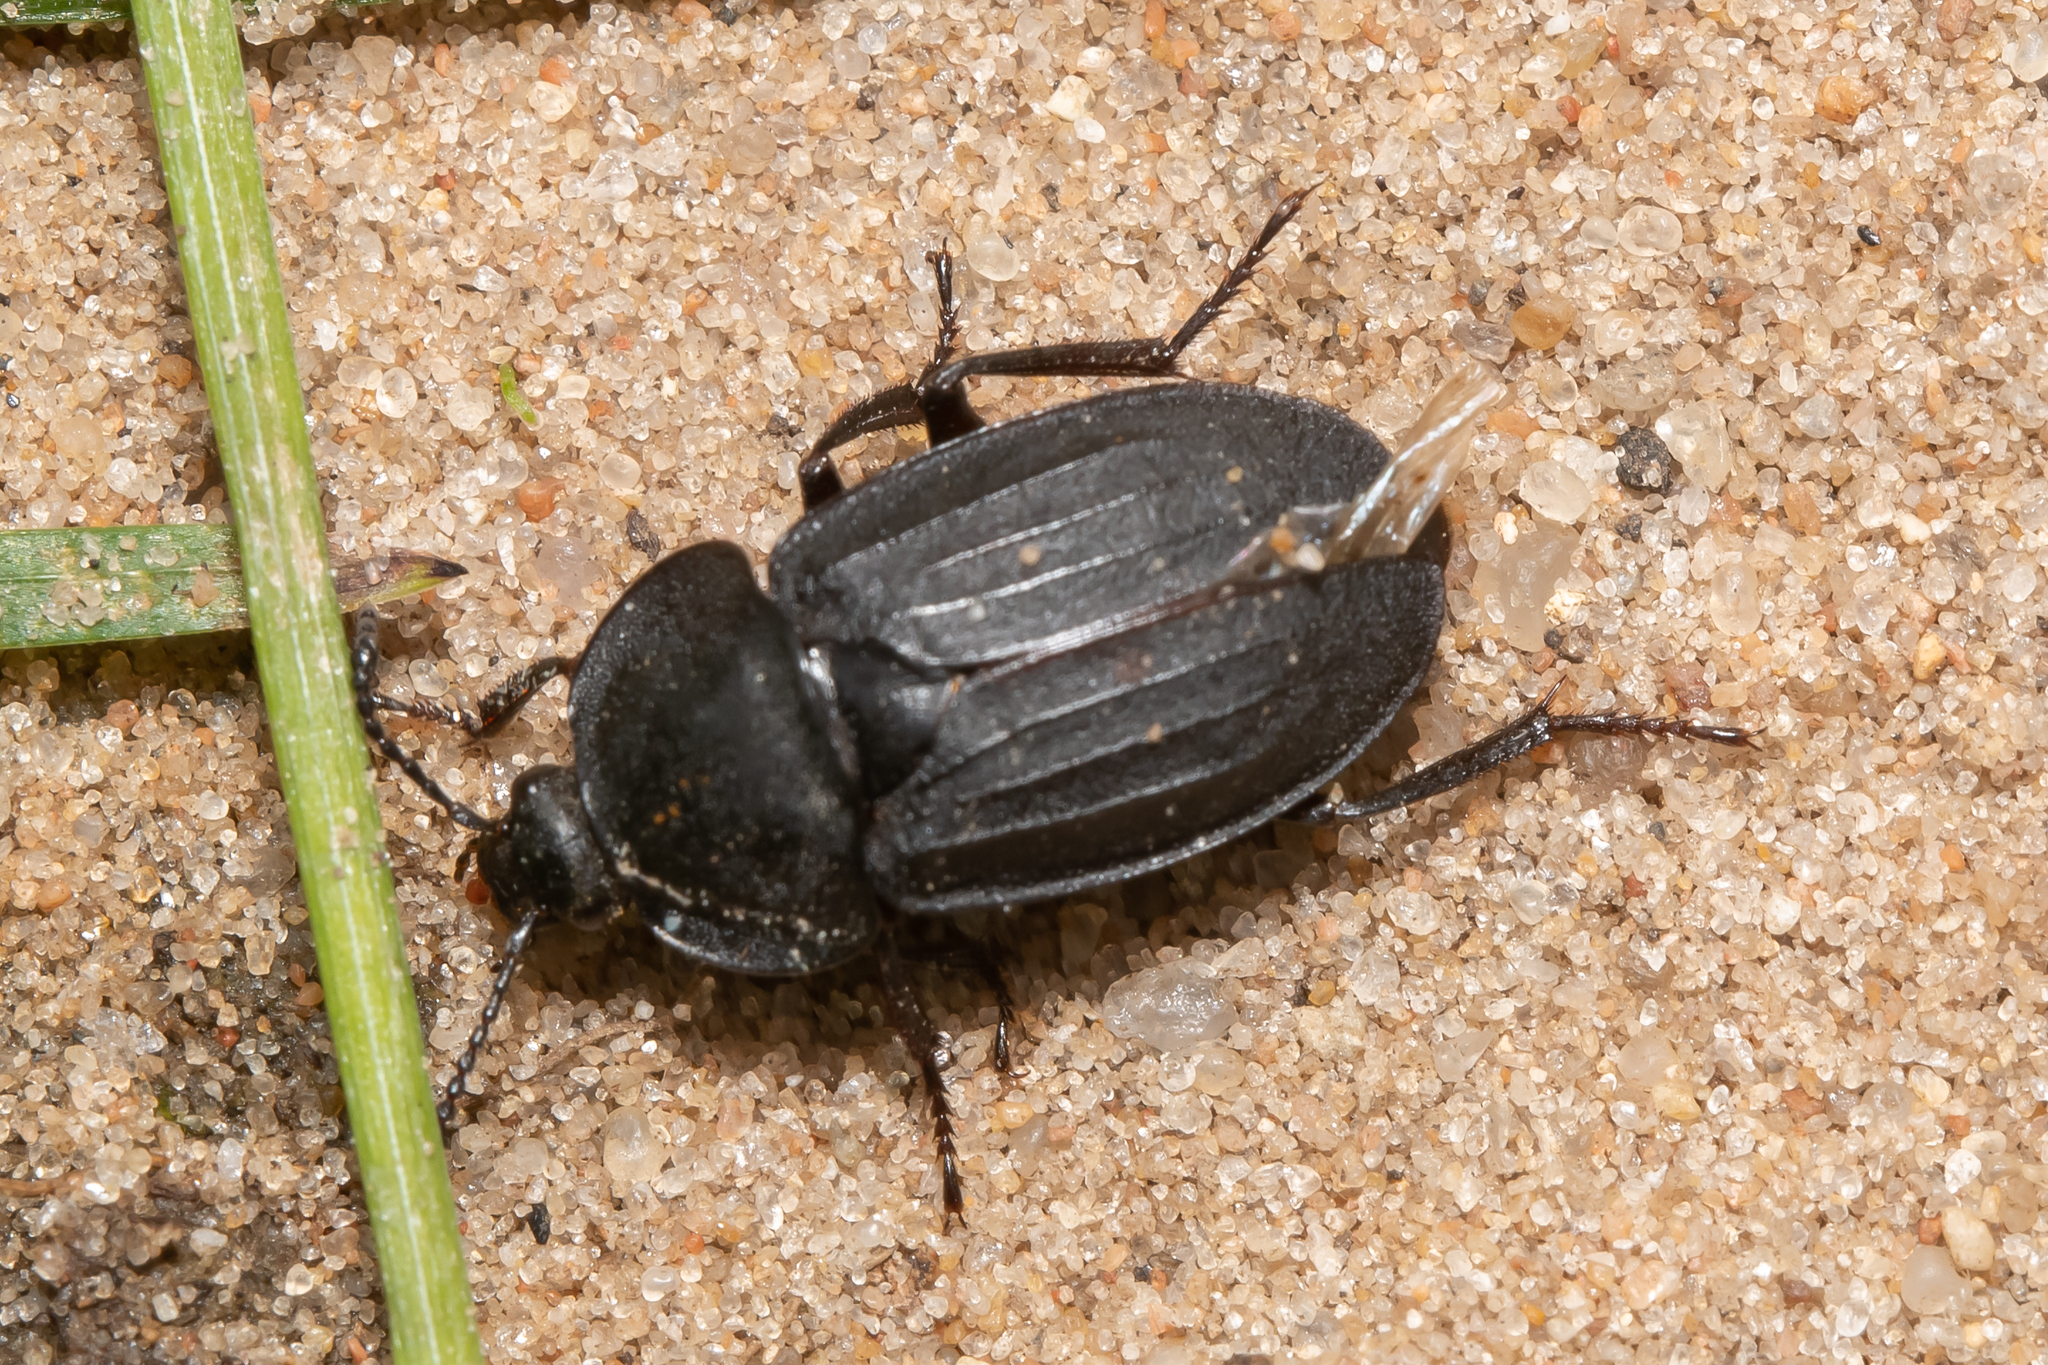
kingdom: Animalia
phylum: Arthropoda
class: Insecta
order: Coleoptera
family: Staphylinidae
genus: Silpha
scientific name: Silpha tristis
